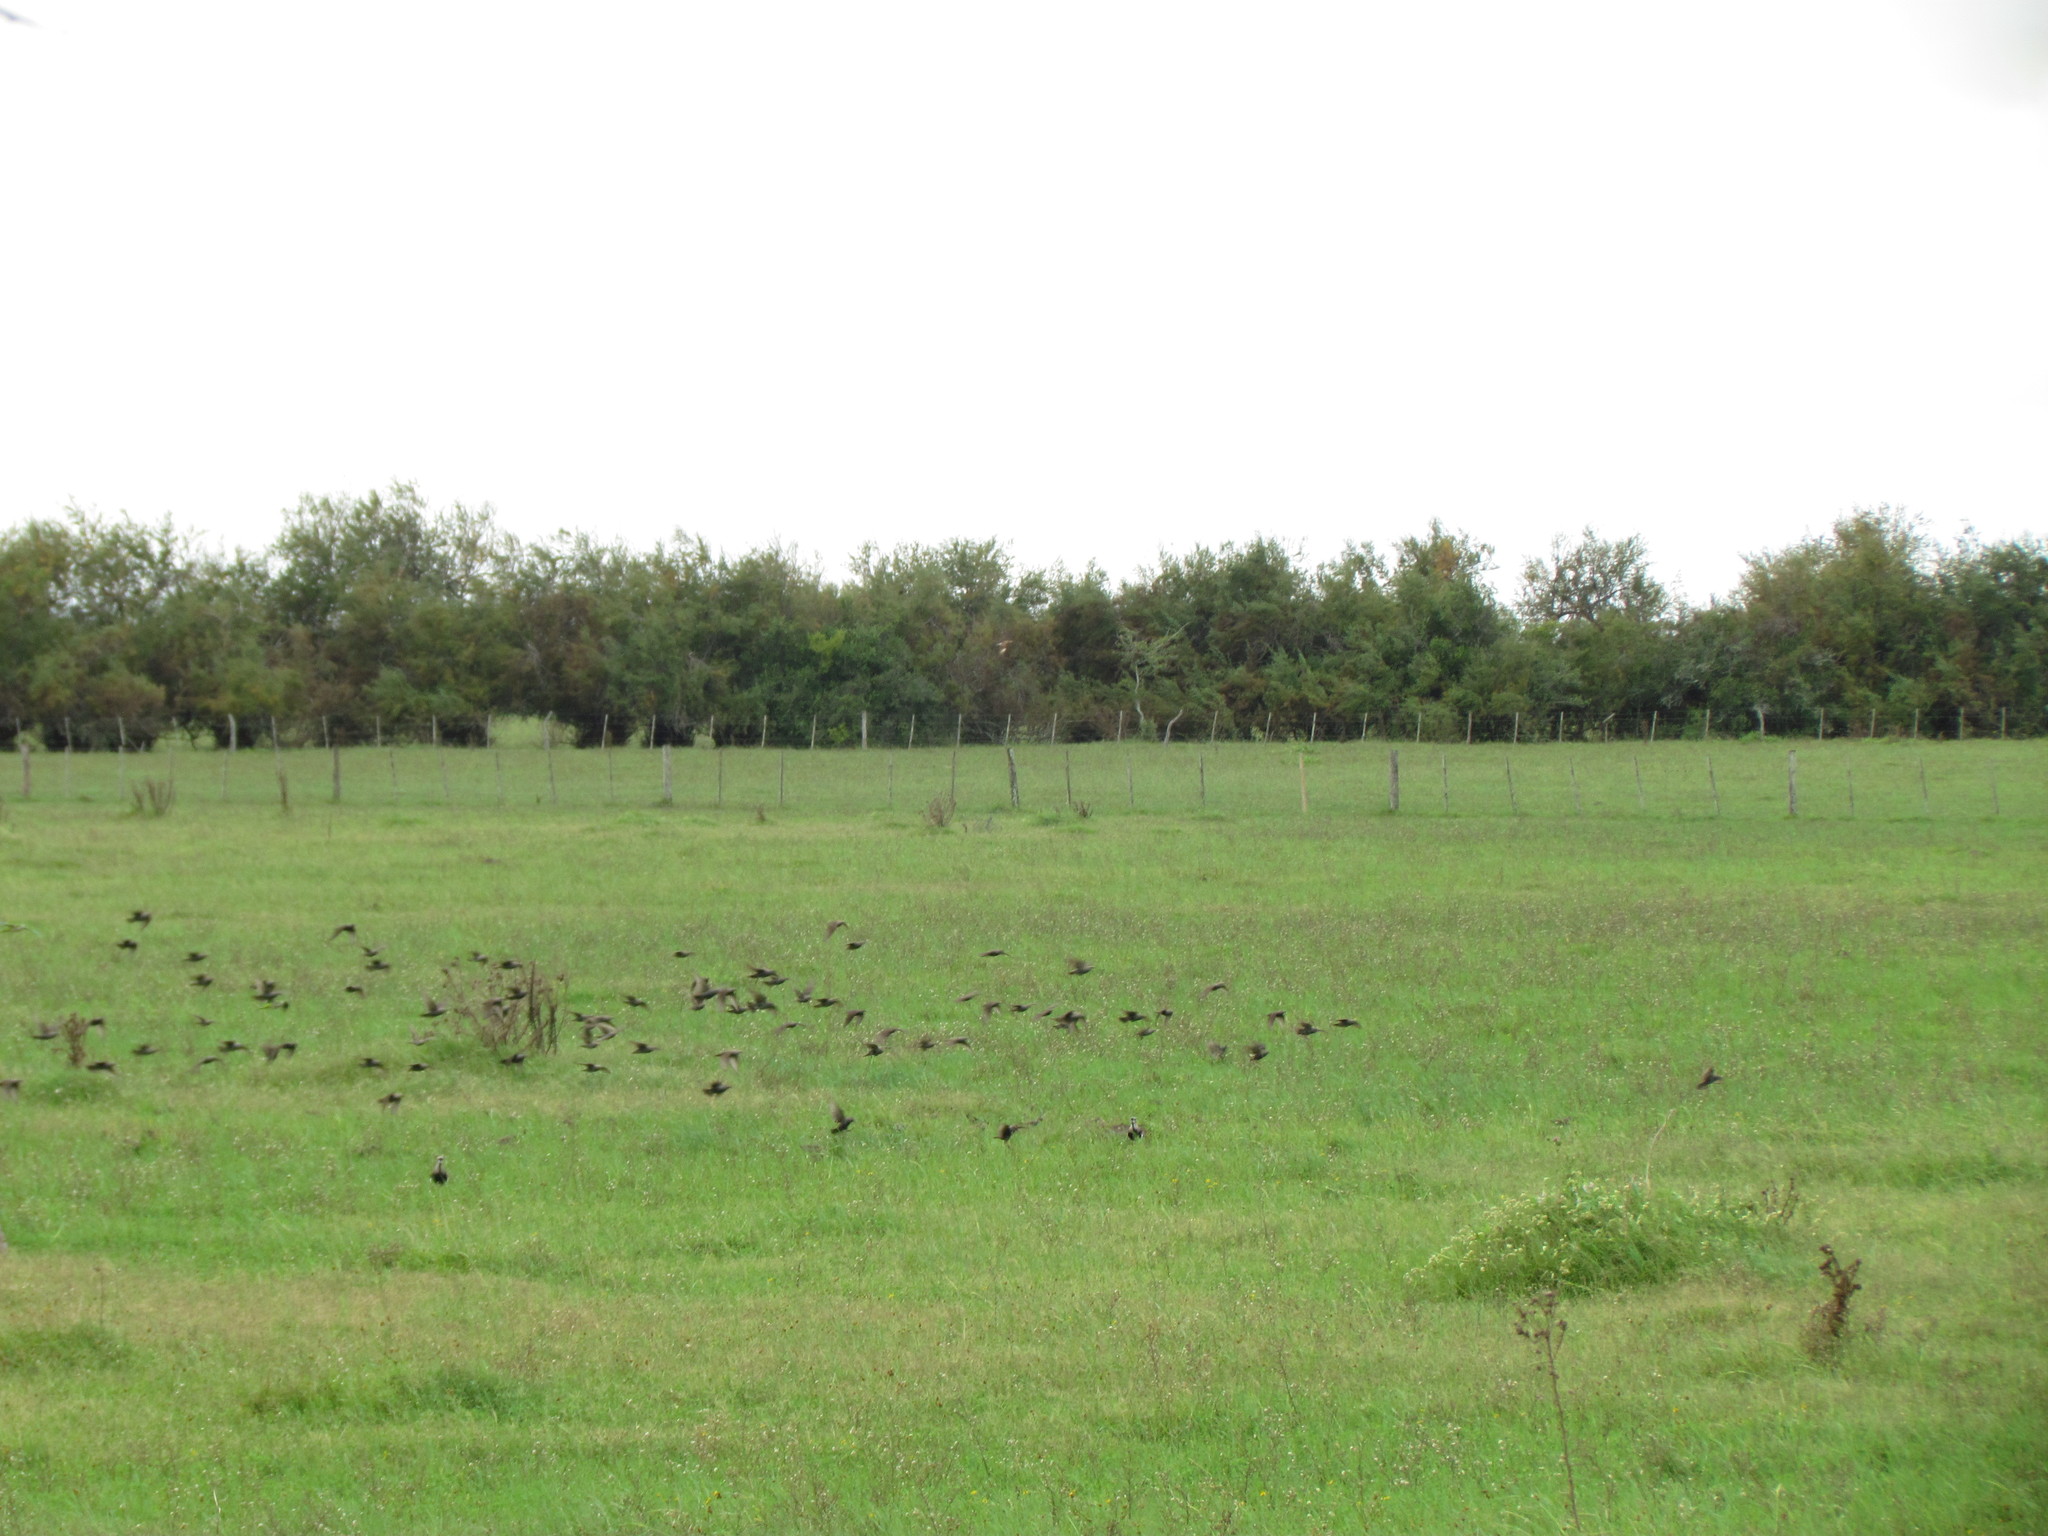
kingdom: Animalia
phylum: Chordata
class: Aves
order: Passeriformes
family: Sturnidae
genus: Sturnus
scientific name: Sturnus vulgaris
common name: Common starling
